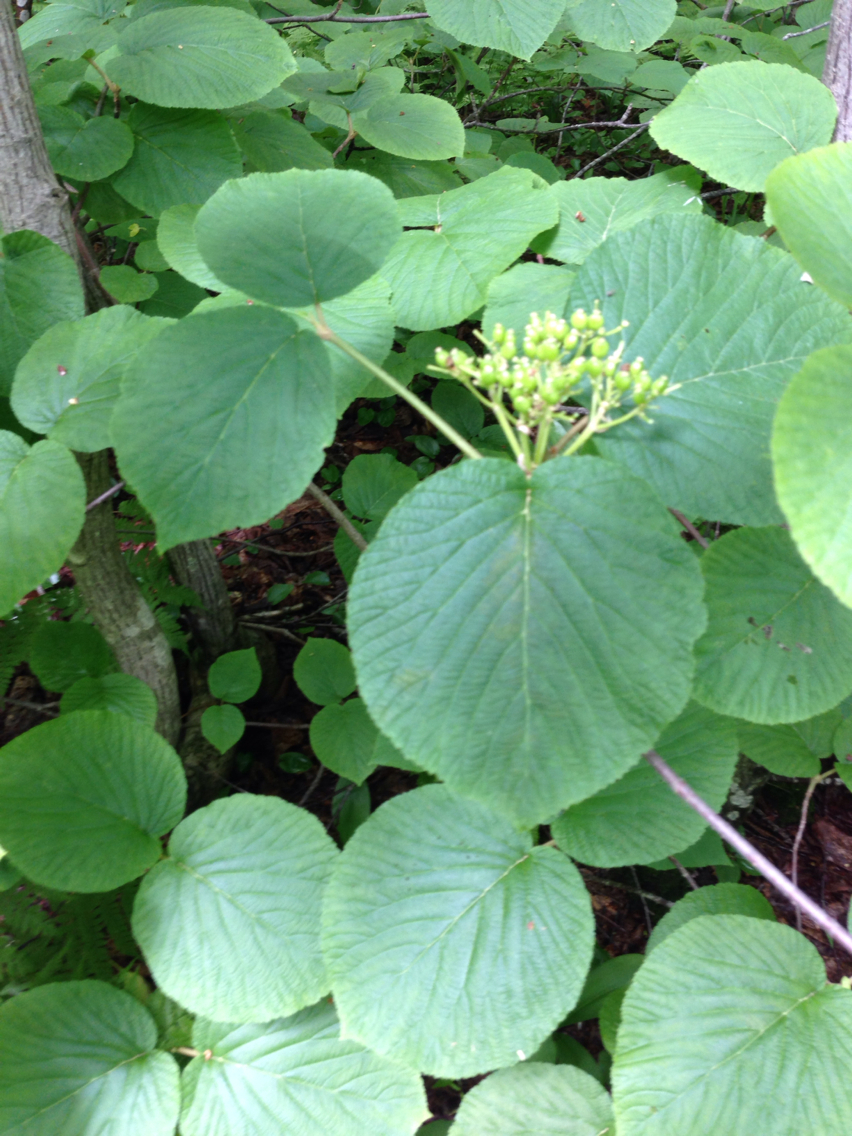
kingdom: Plantae
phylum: Tracheophyta
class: Magnoliopsida
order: Dipsacales
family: Viburnaceae
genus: Viburnum
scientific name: Viburnum lantanoides
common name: Hobblebush
